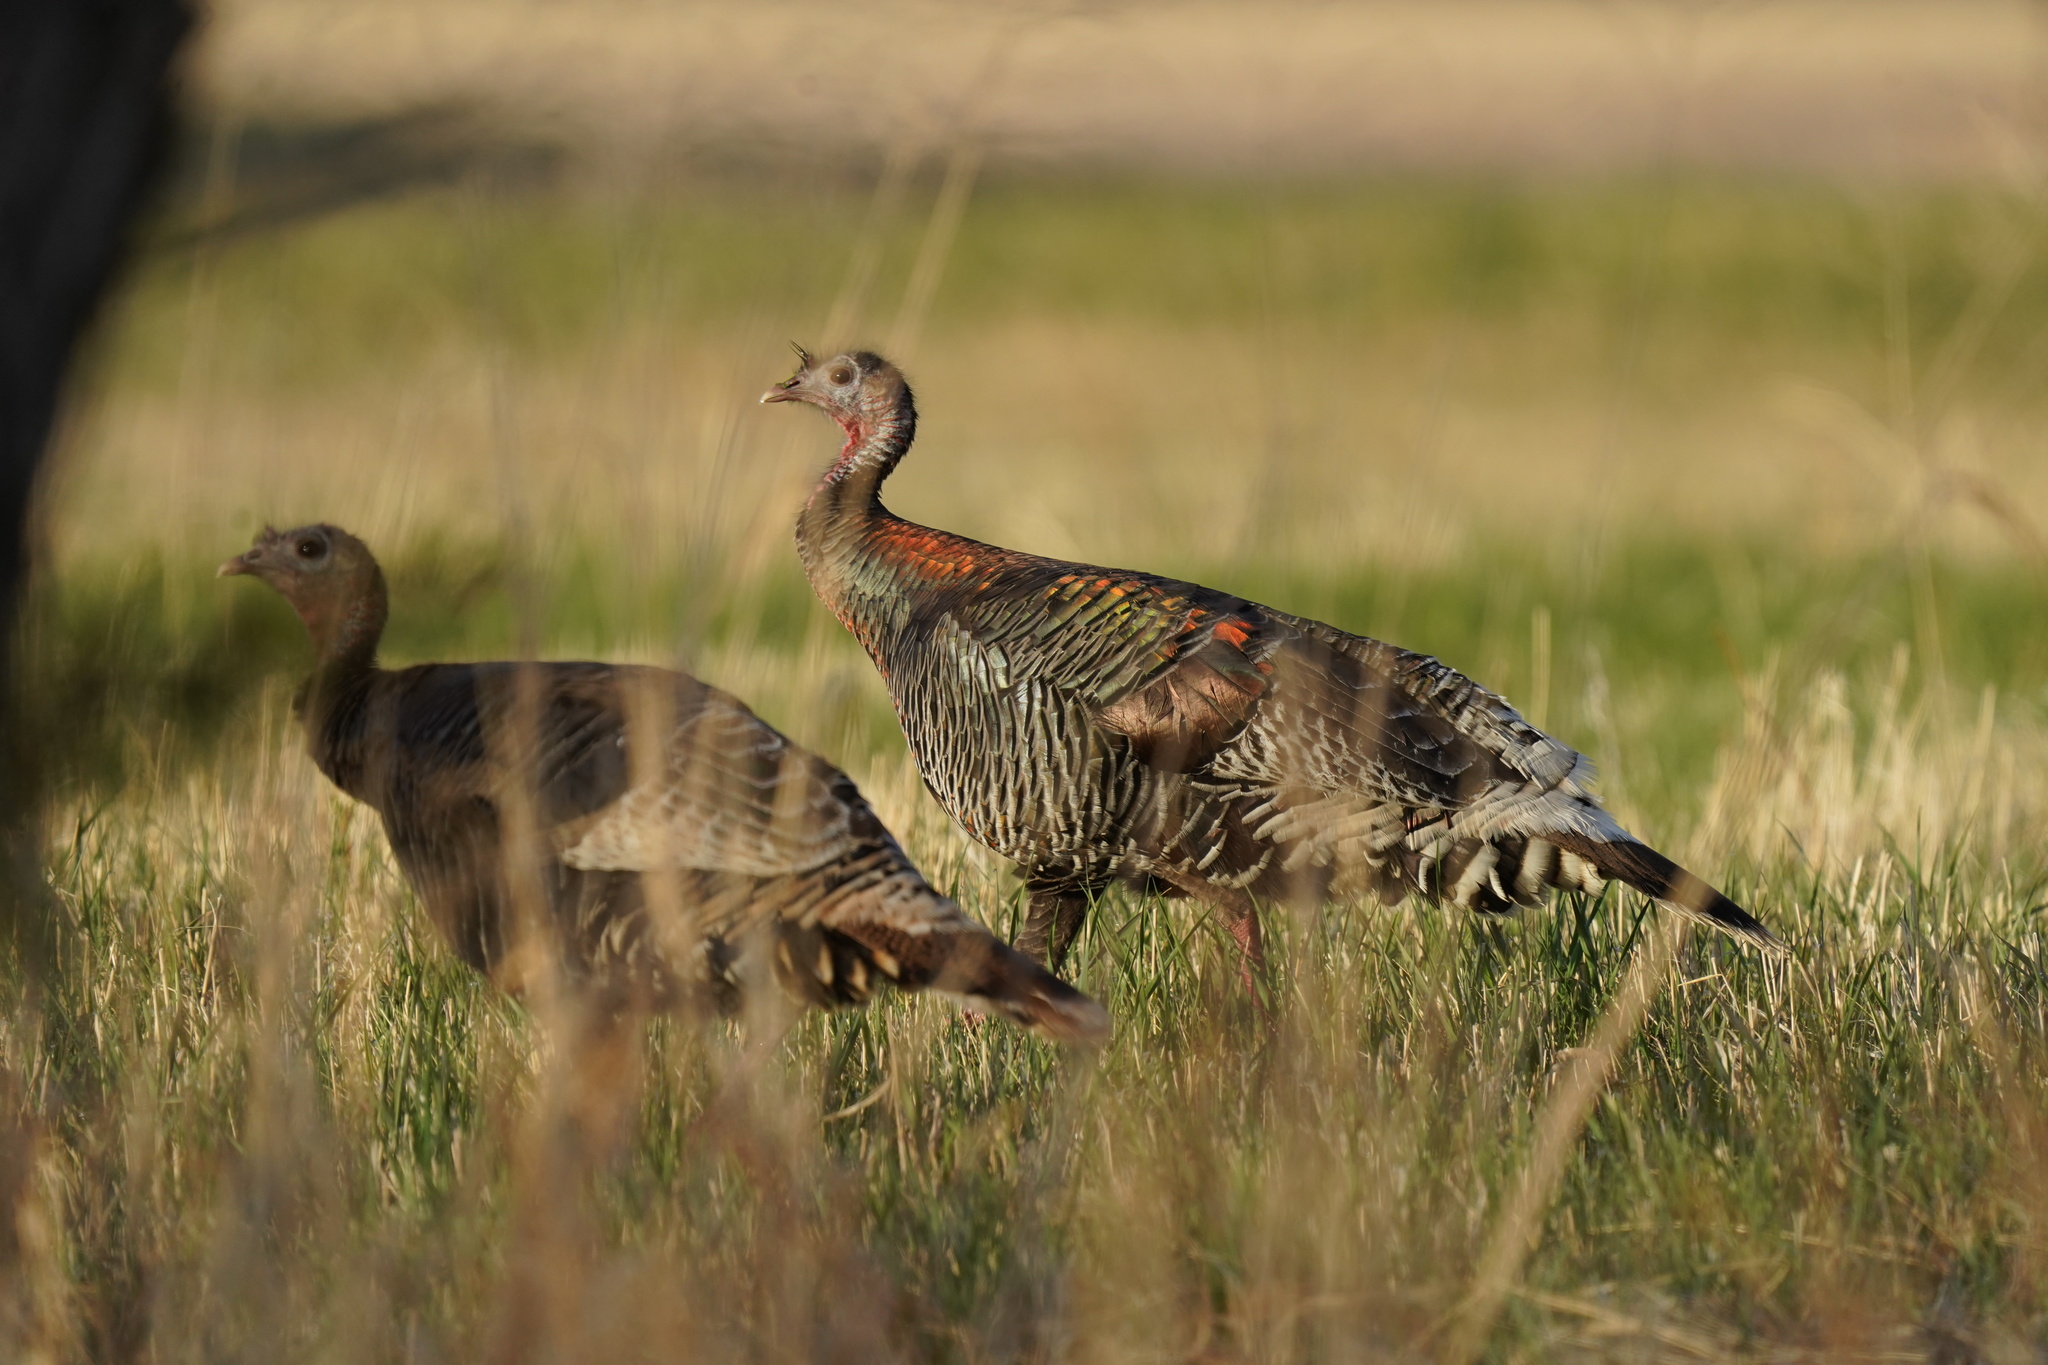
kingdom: Animalia
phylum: Chordata
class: Aves
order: Galliformes
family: Phasianidae
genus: Meleagris
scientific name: Meleagris gallopavo
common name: Wild turkey
